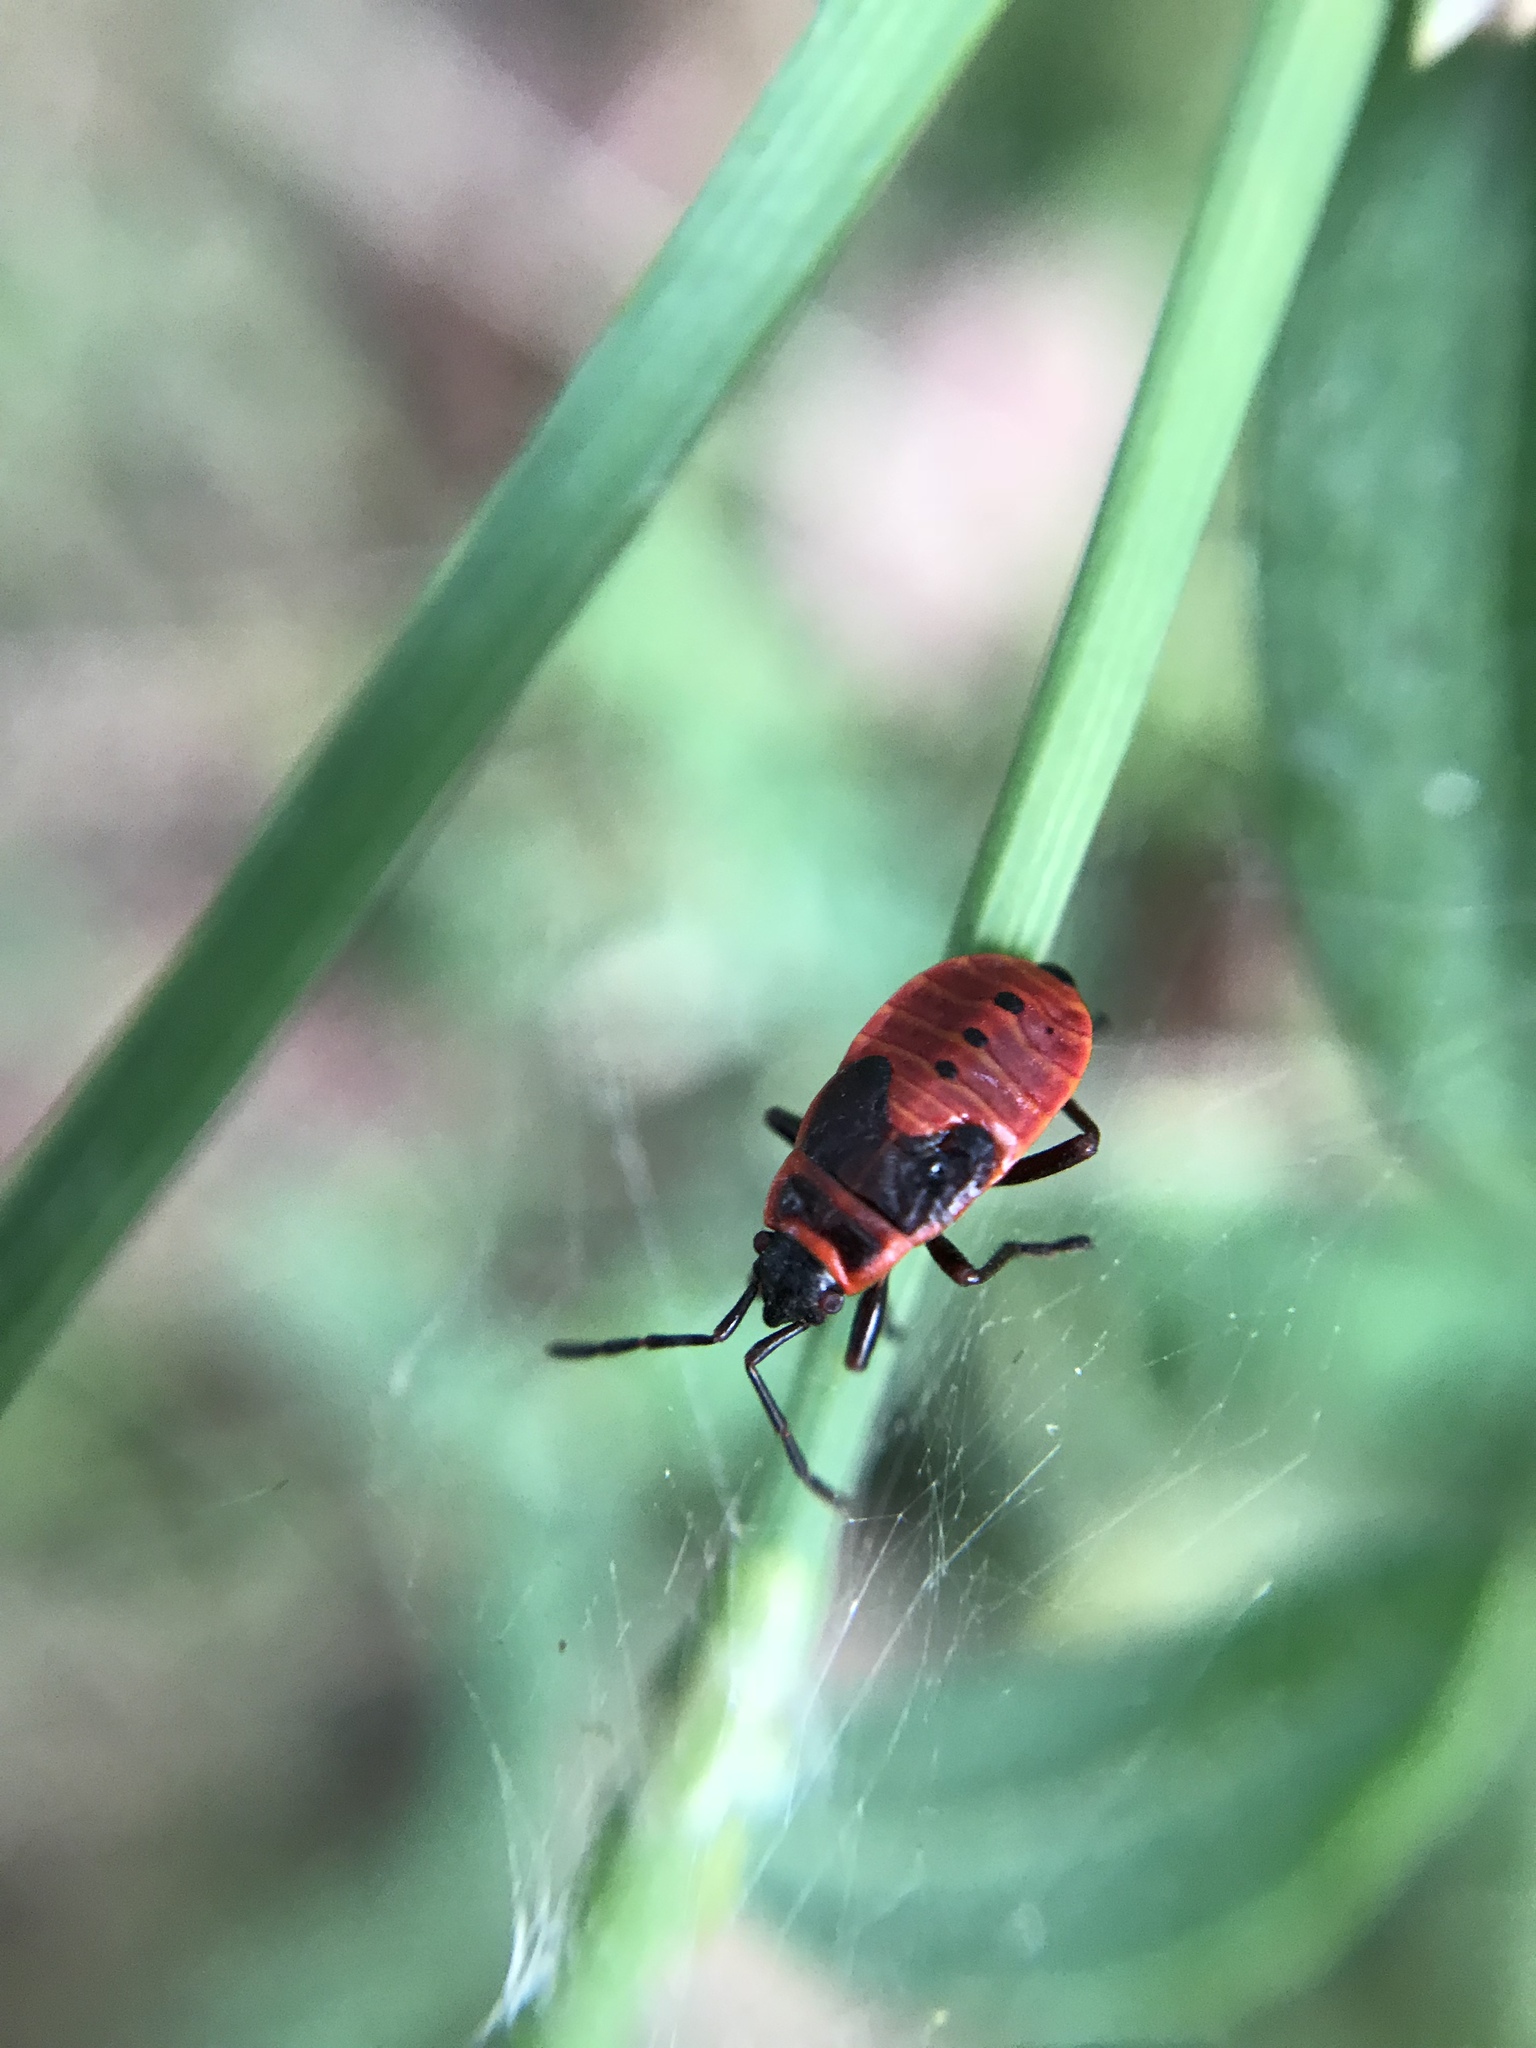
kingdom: Animalia
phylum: Arthropoda
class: Insecta
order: Hemiptera
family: Pyrrhocoridae
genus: Pyrrhocoris
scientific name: Pyrrhocoris apterus
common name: Firebug
